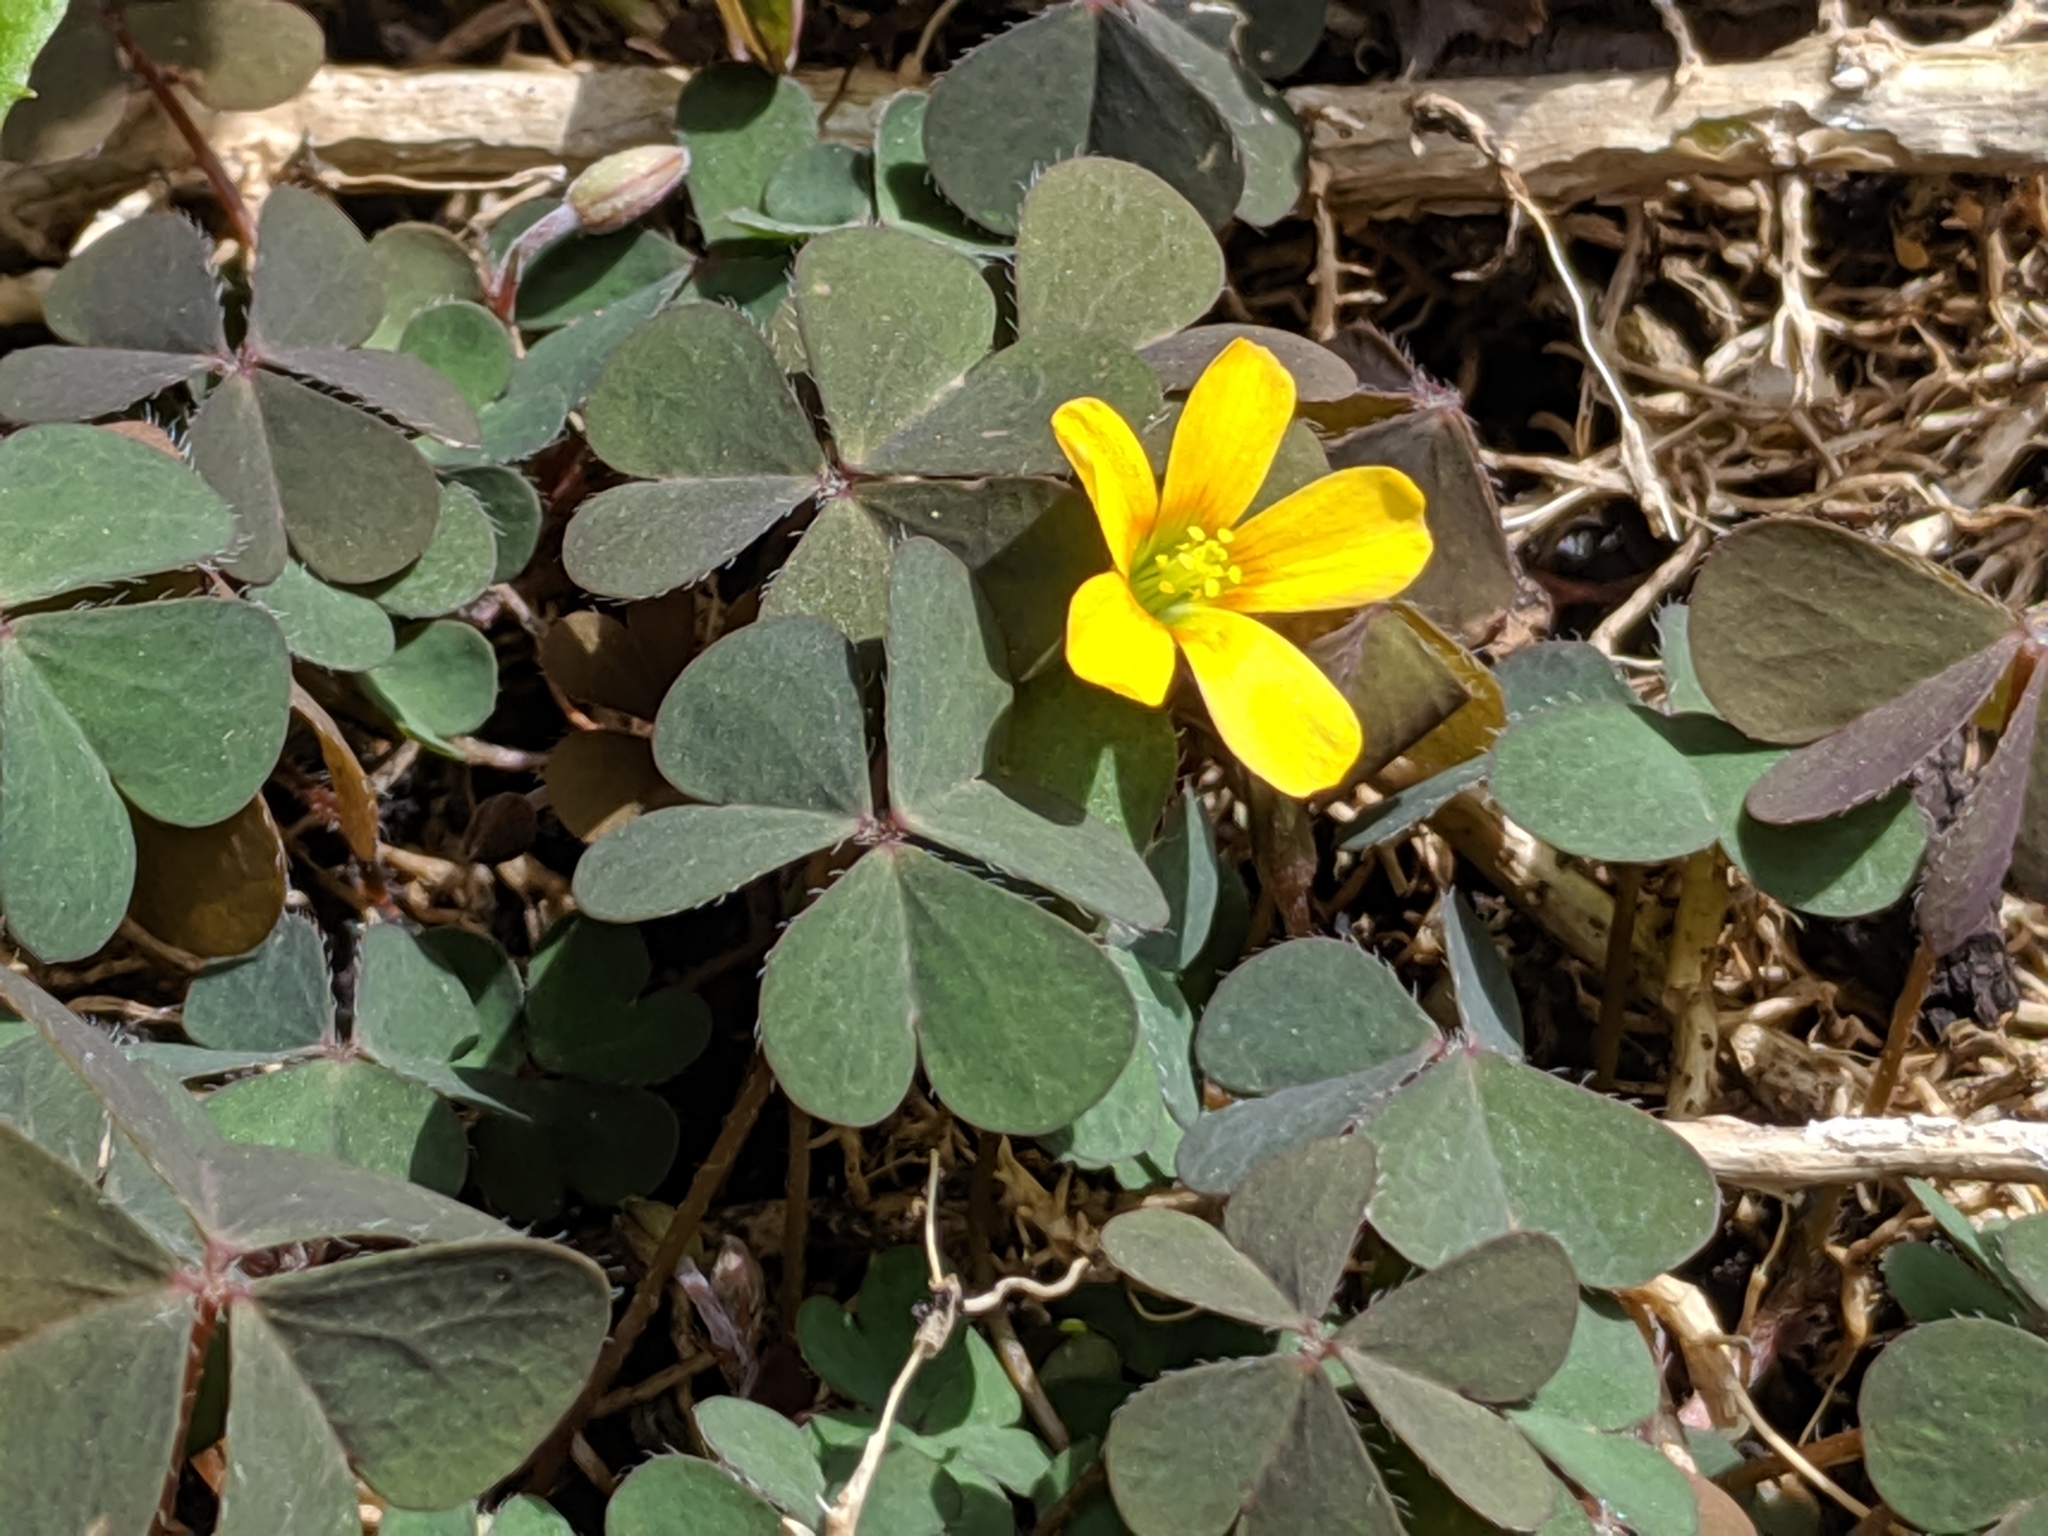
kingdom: Plantae
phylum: Tracheophyta
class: Magnoliopsida
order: Oxalidales
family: Oxalidaceae
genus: Oxalis
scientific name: Oxalis corniculata
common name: Procumbent yellow-sorrel
